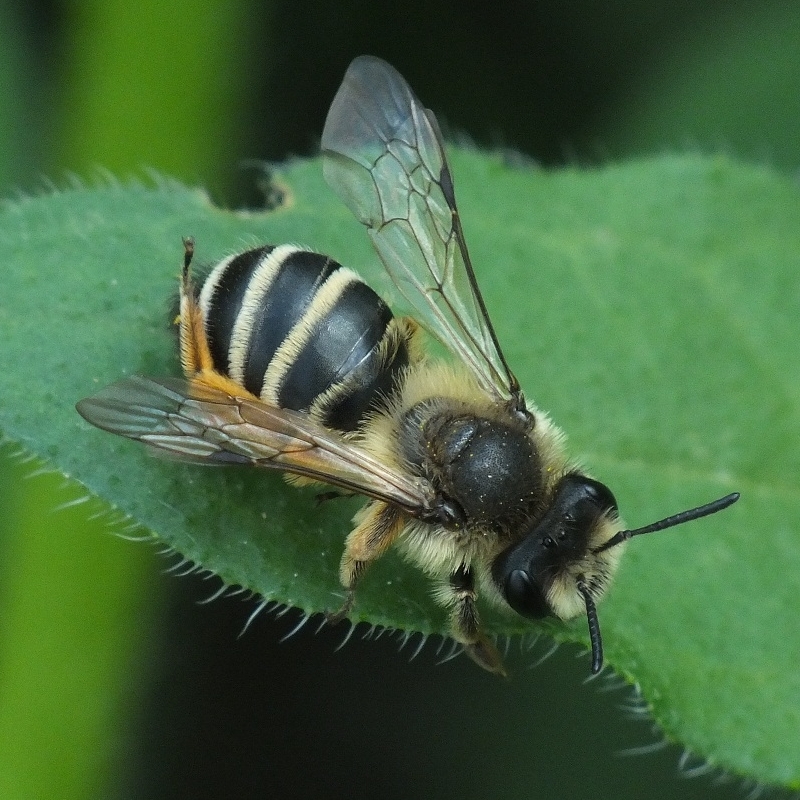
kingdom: Animalia
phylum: Arthropoda
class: Insecta
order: Hymenoptera
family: Andrenidae
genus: Andrena
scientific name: Andrena flavipes
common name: Yellow-legged mining bee
